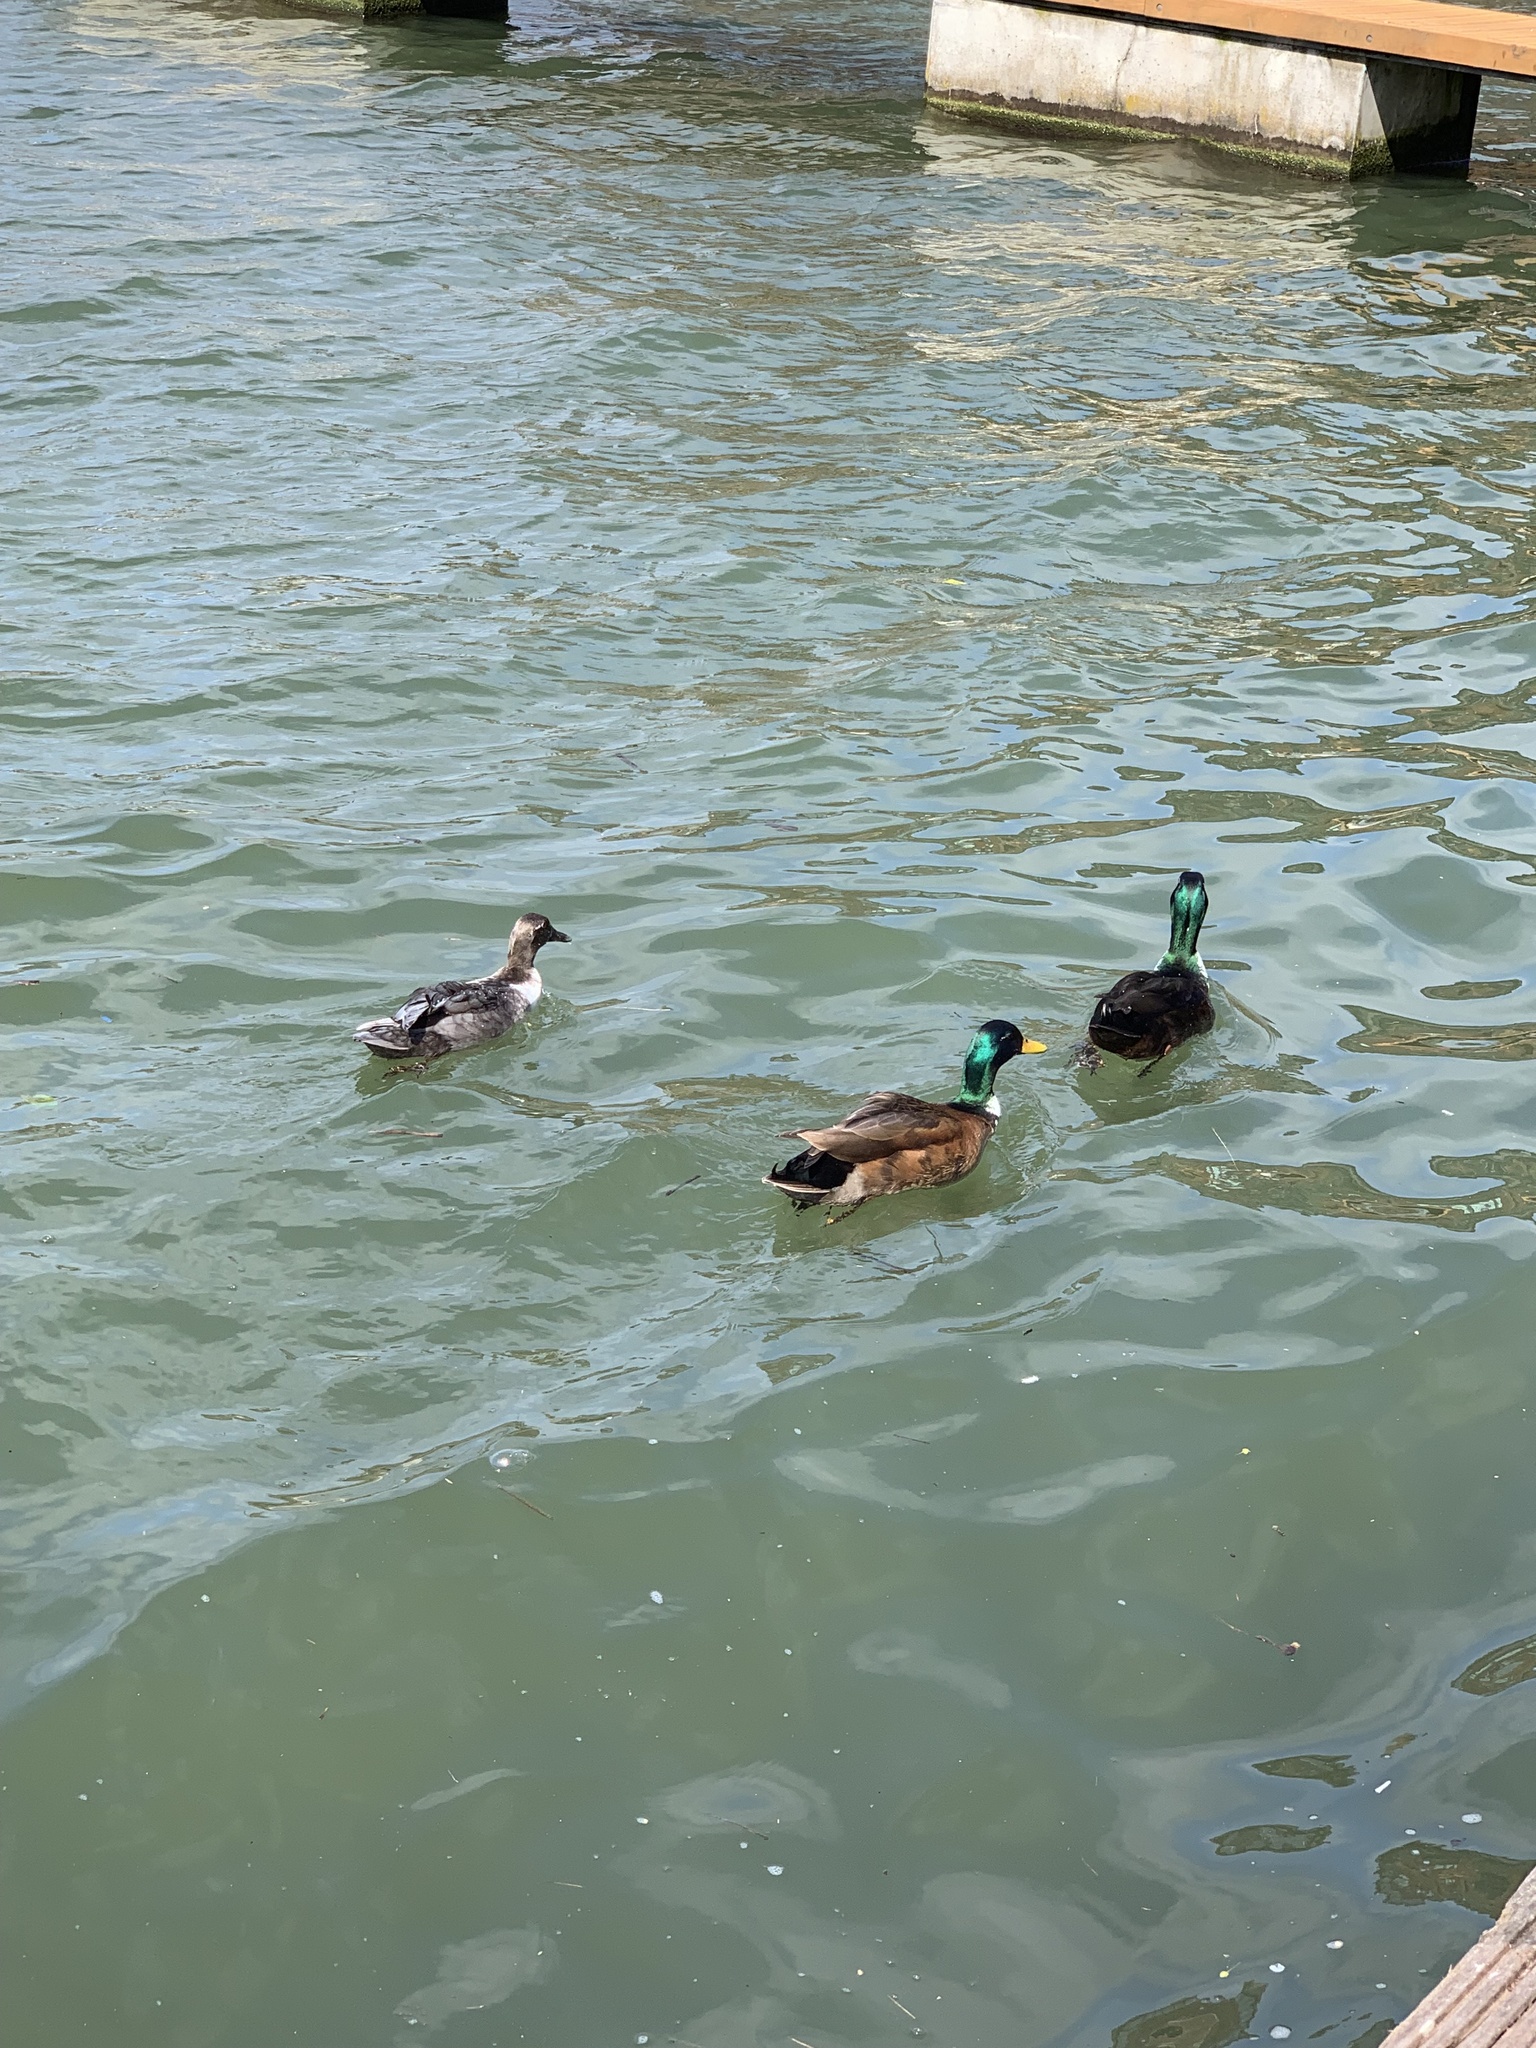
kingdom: Animalia
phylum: Chordata
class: Aves
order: Anseriformes
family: Anatidae
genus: Anas
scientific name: Anas platyrhynchos
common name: Mallard
